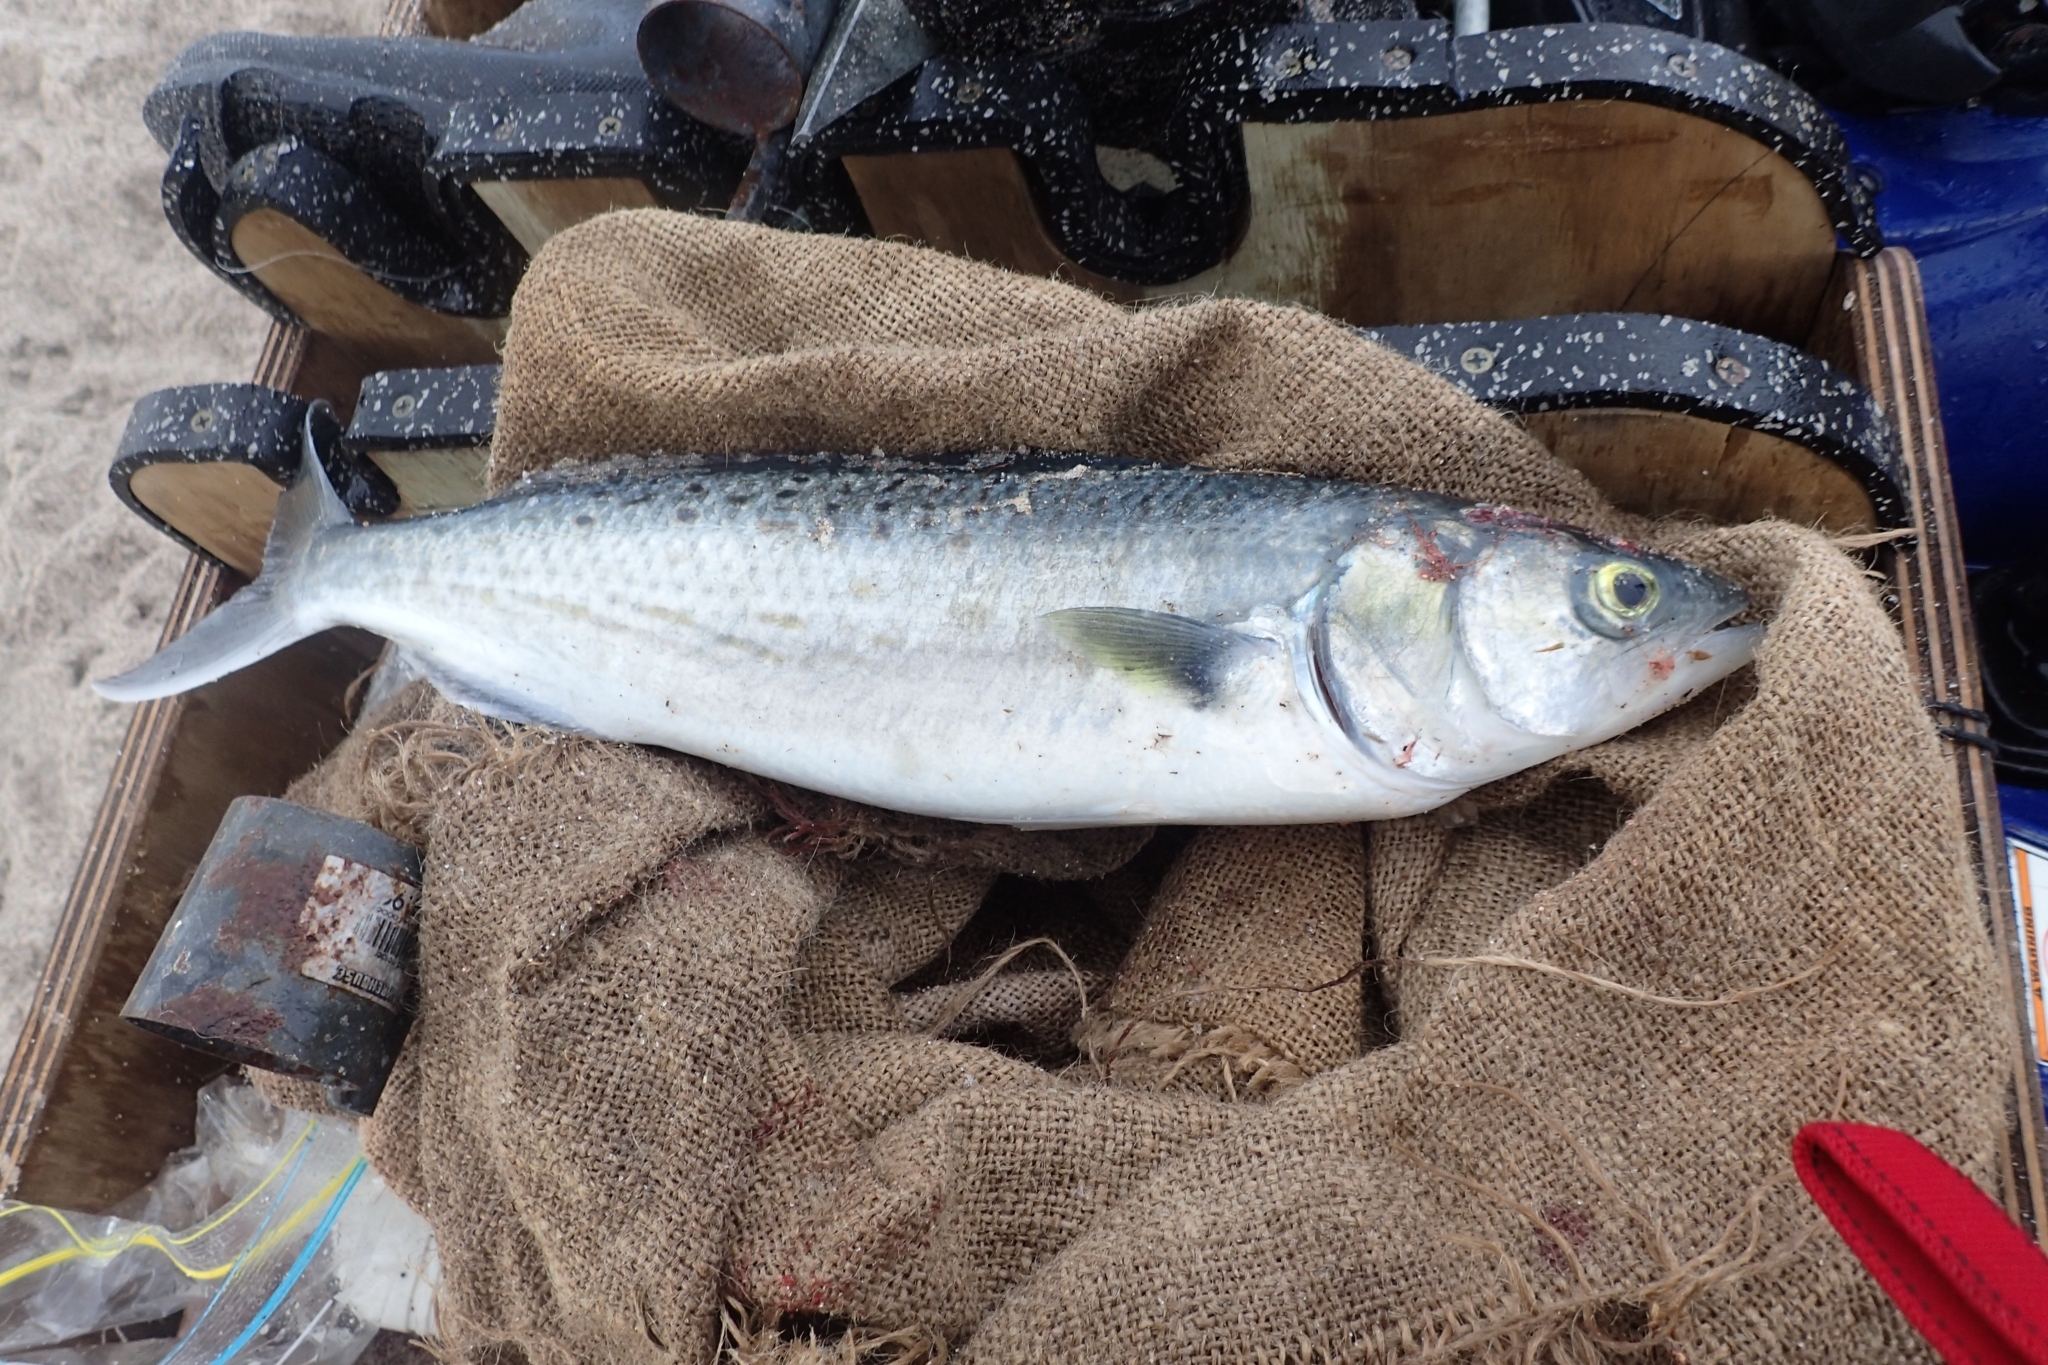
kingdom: Animalia
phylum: Chordata
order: Perciformes
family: Arripidae
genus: Arripis
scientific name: Arripis trutta
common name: Kahawai
